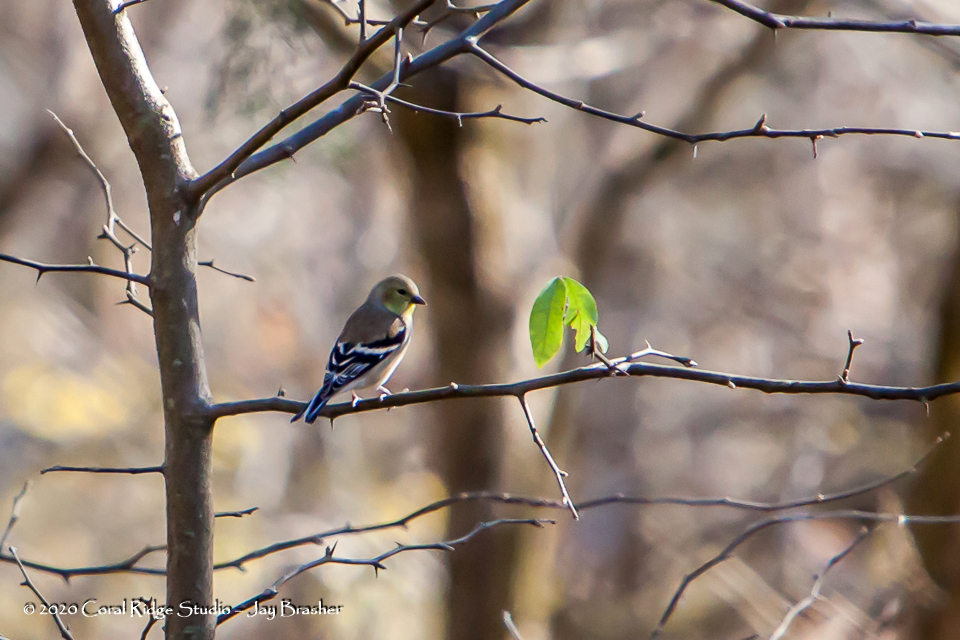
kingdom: Animalia
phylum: Chordata
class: Aves
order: Passeriformes
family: Fringillidae
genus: Spinus
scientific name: Spinus tristis
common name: American goldfinch
